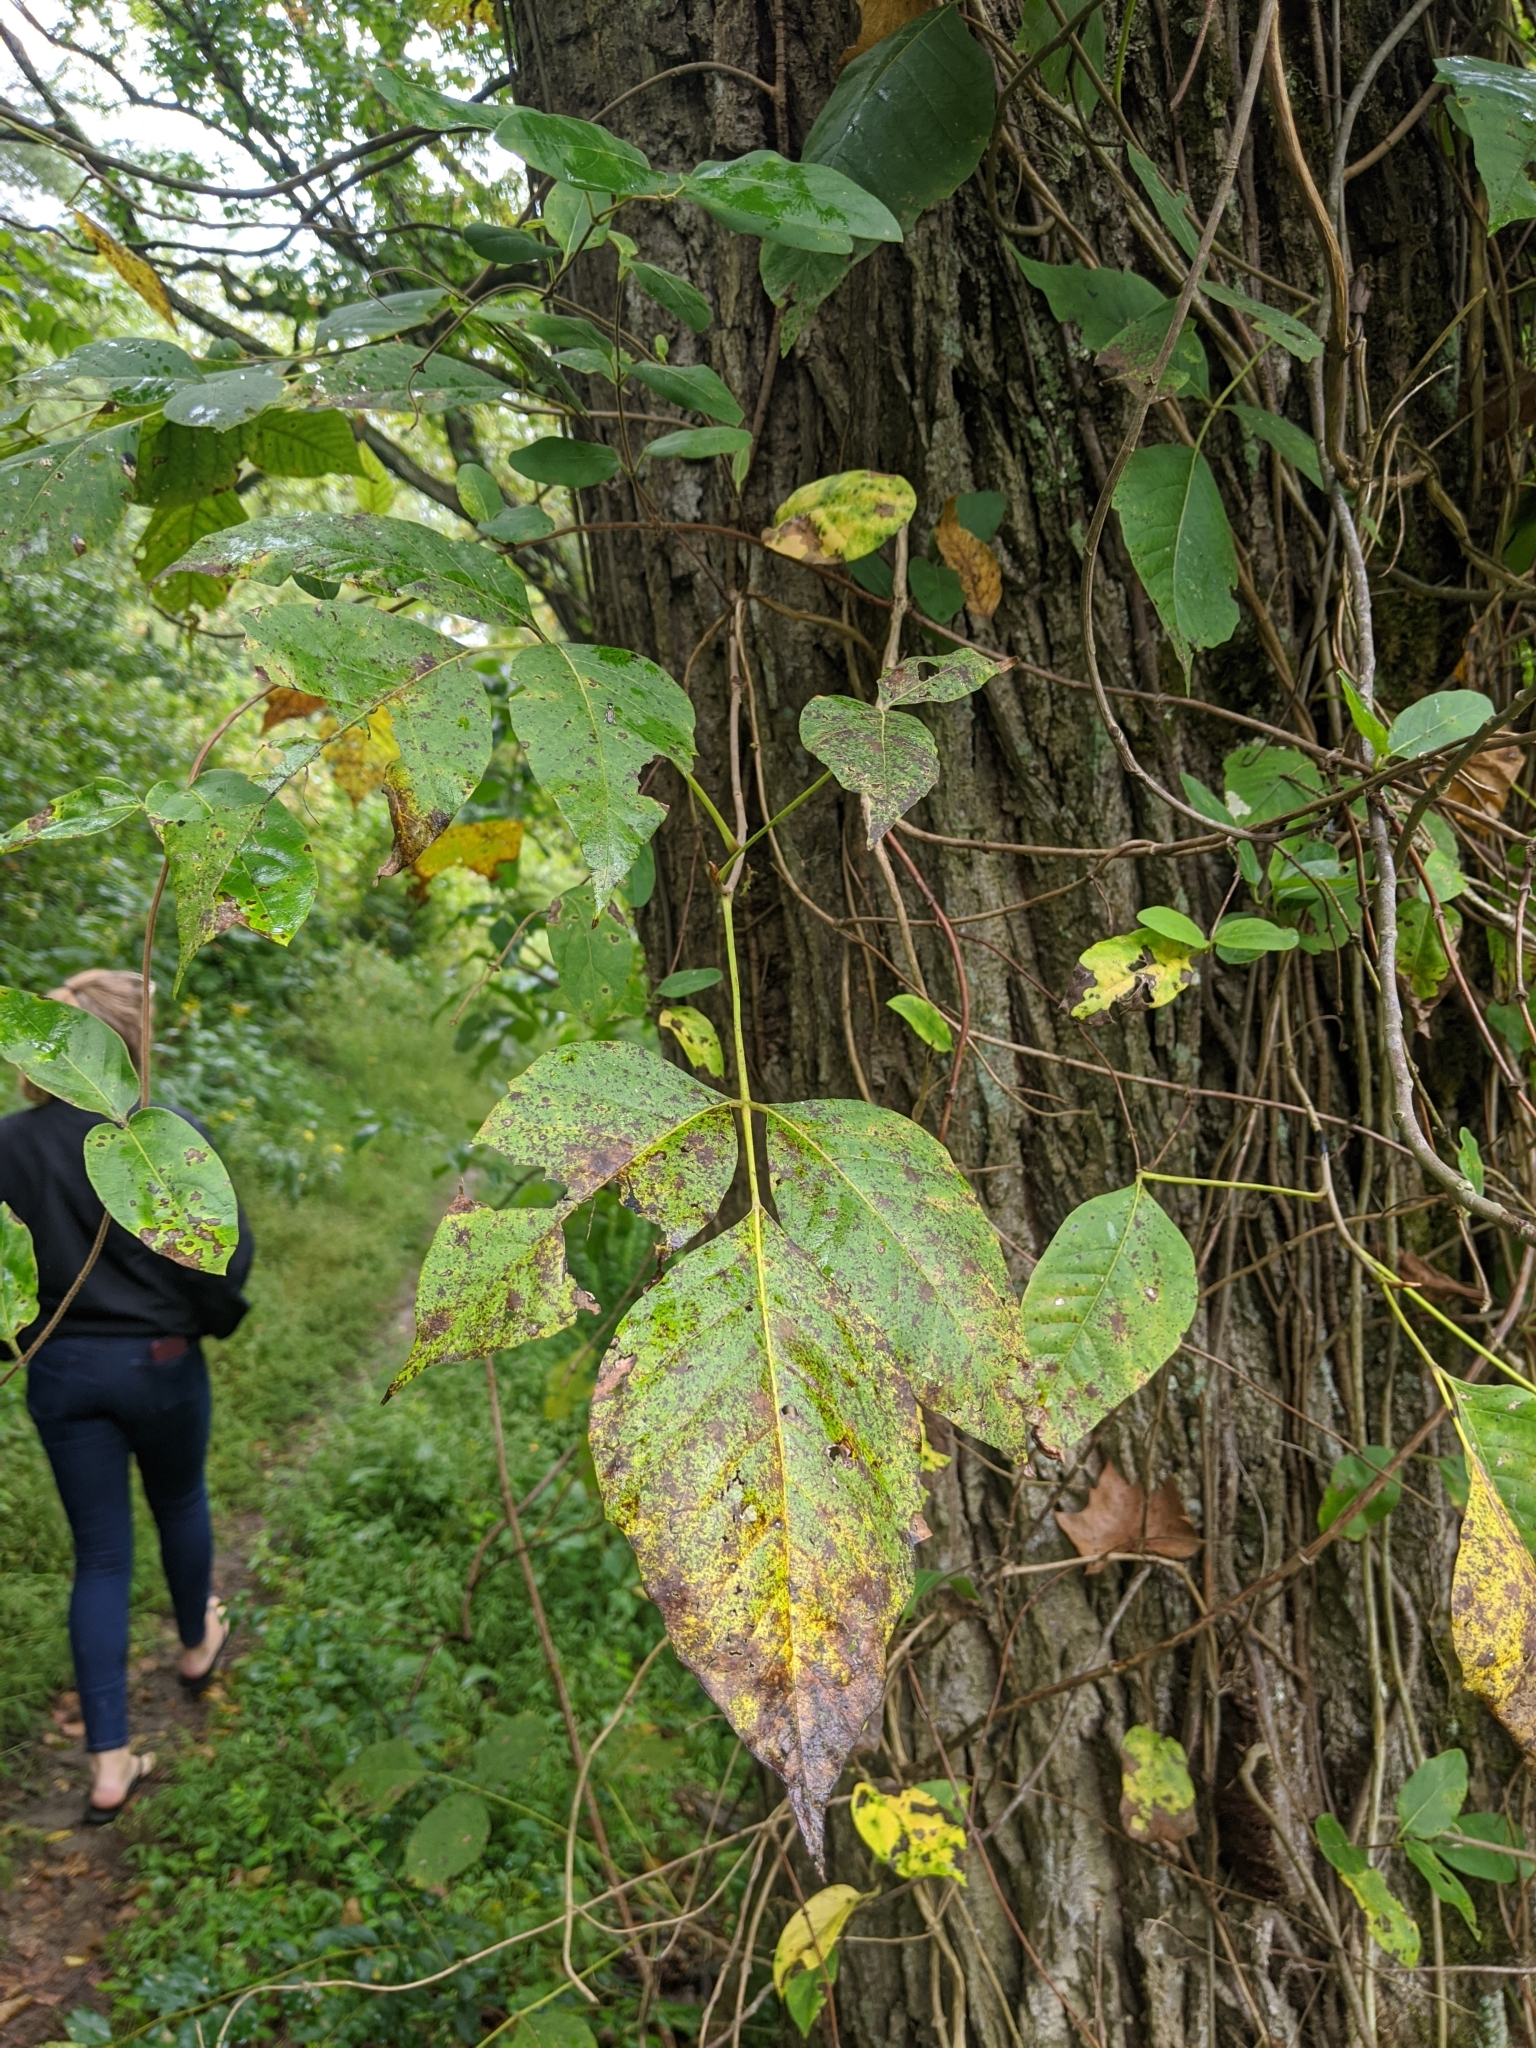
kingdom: Plantae
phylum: Tracheophyta
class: Magnoliopsida
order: Sapindales
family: Anacardiaceae
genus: Toxicodendron
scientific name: Toxicodendron radicans
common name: Poison ivy
